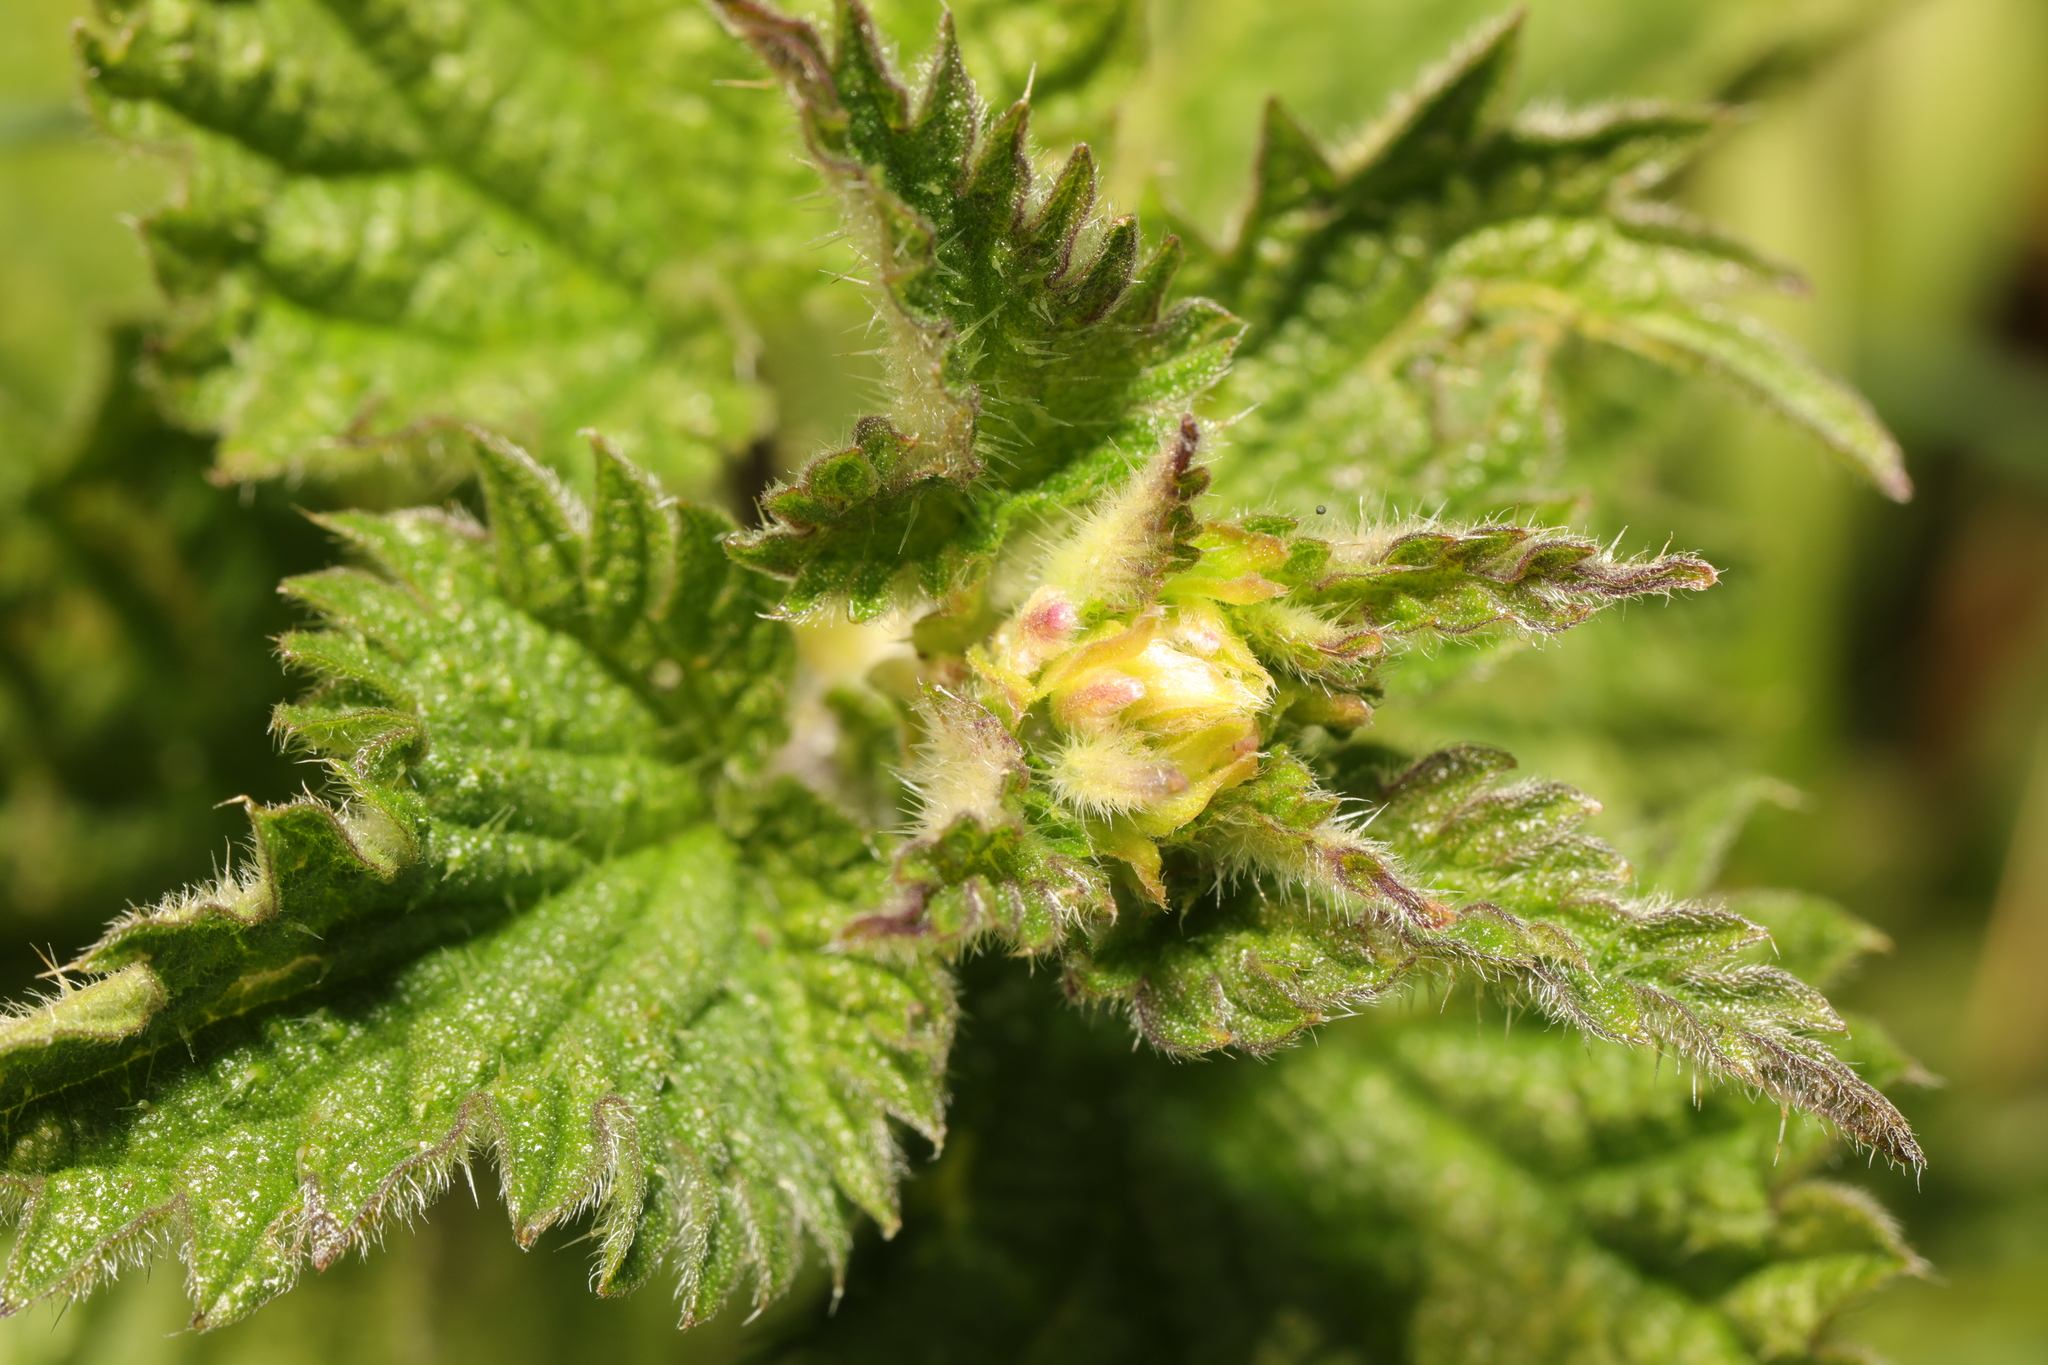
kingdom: Plantae
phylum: Tracheophyta
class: Magnoliopsida
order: Rosales
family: Urticaceae
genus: Urtica
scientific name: Urtica dioica
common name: Common nettle
